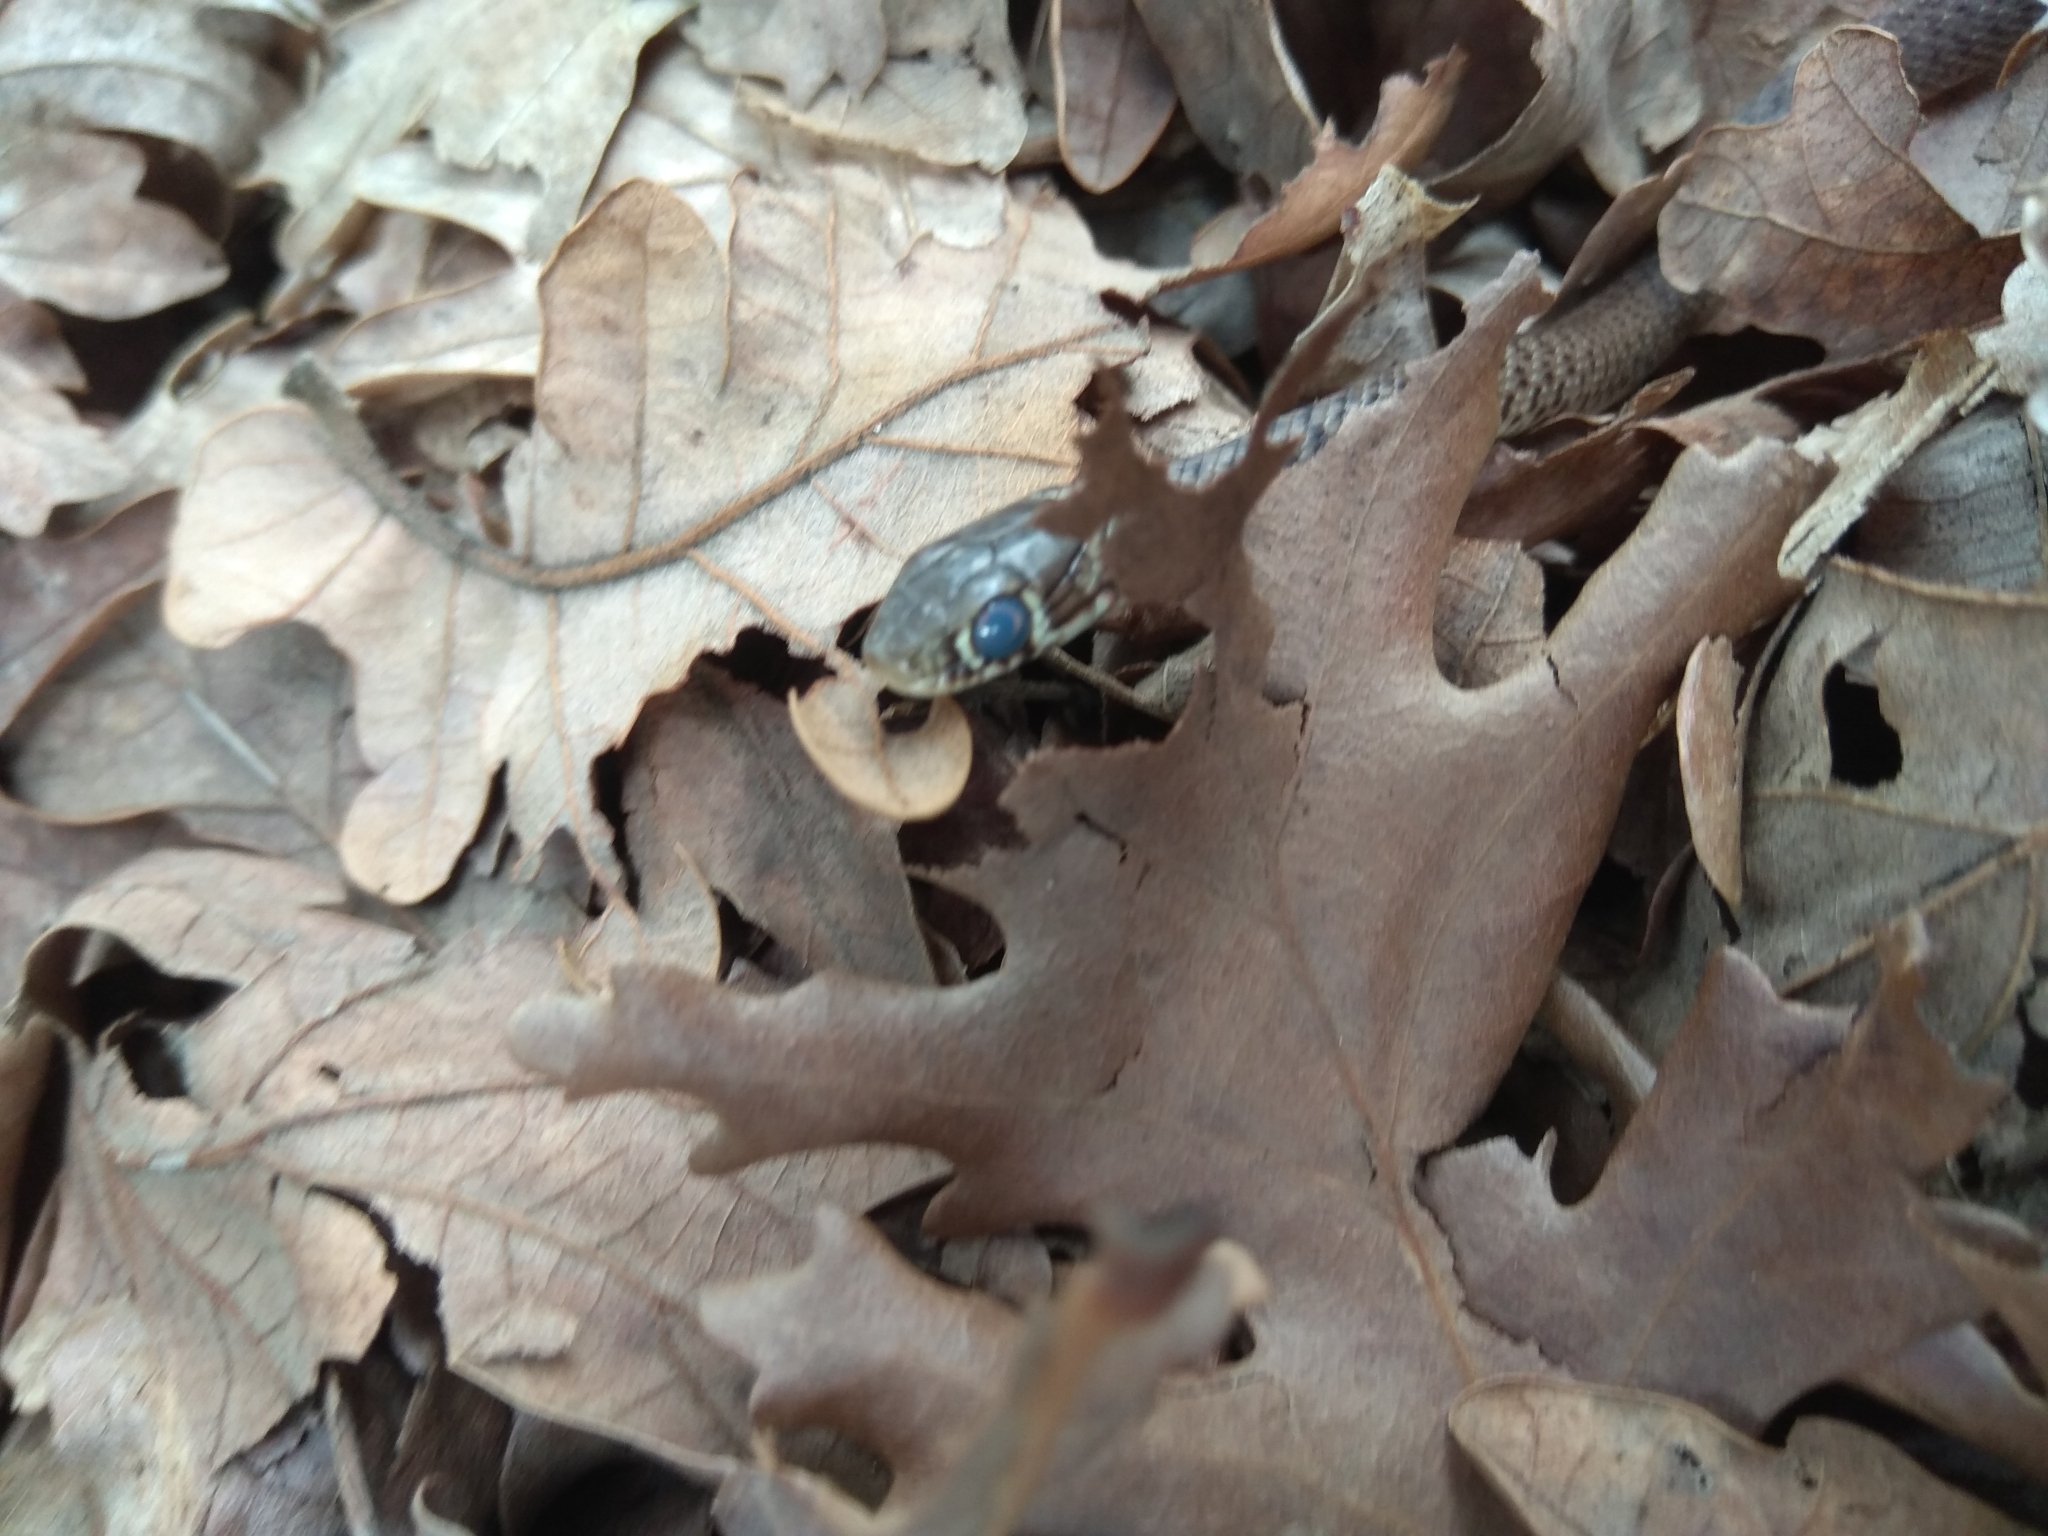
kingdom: Animalia
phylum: Chordata
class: Squamata
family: Colubridae
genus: Hierophis
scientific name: Hierophis gemonensis
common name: Balkan whip snake
